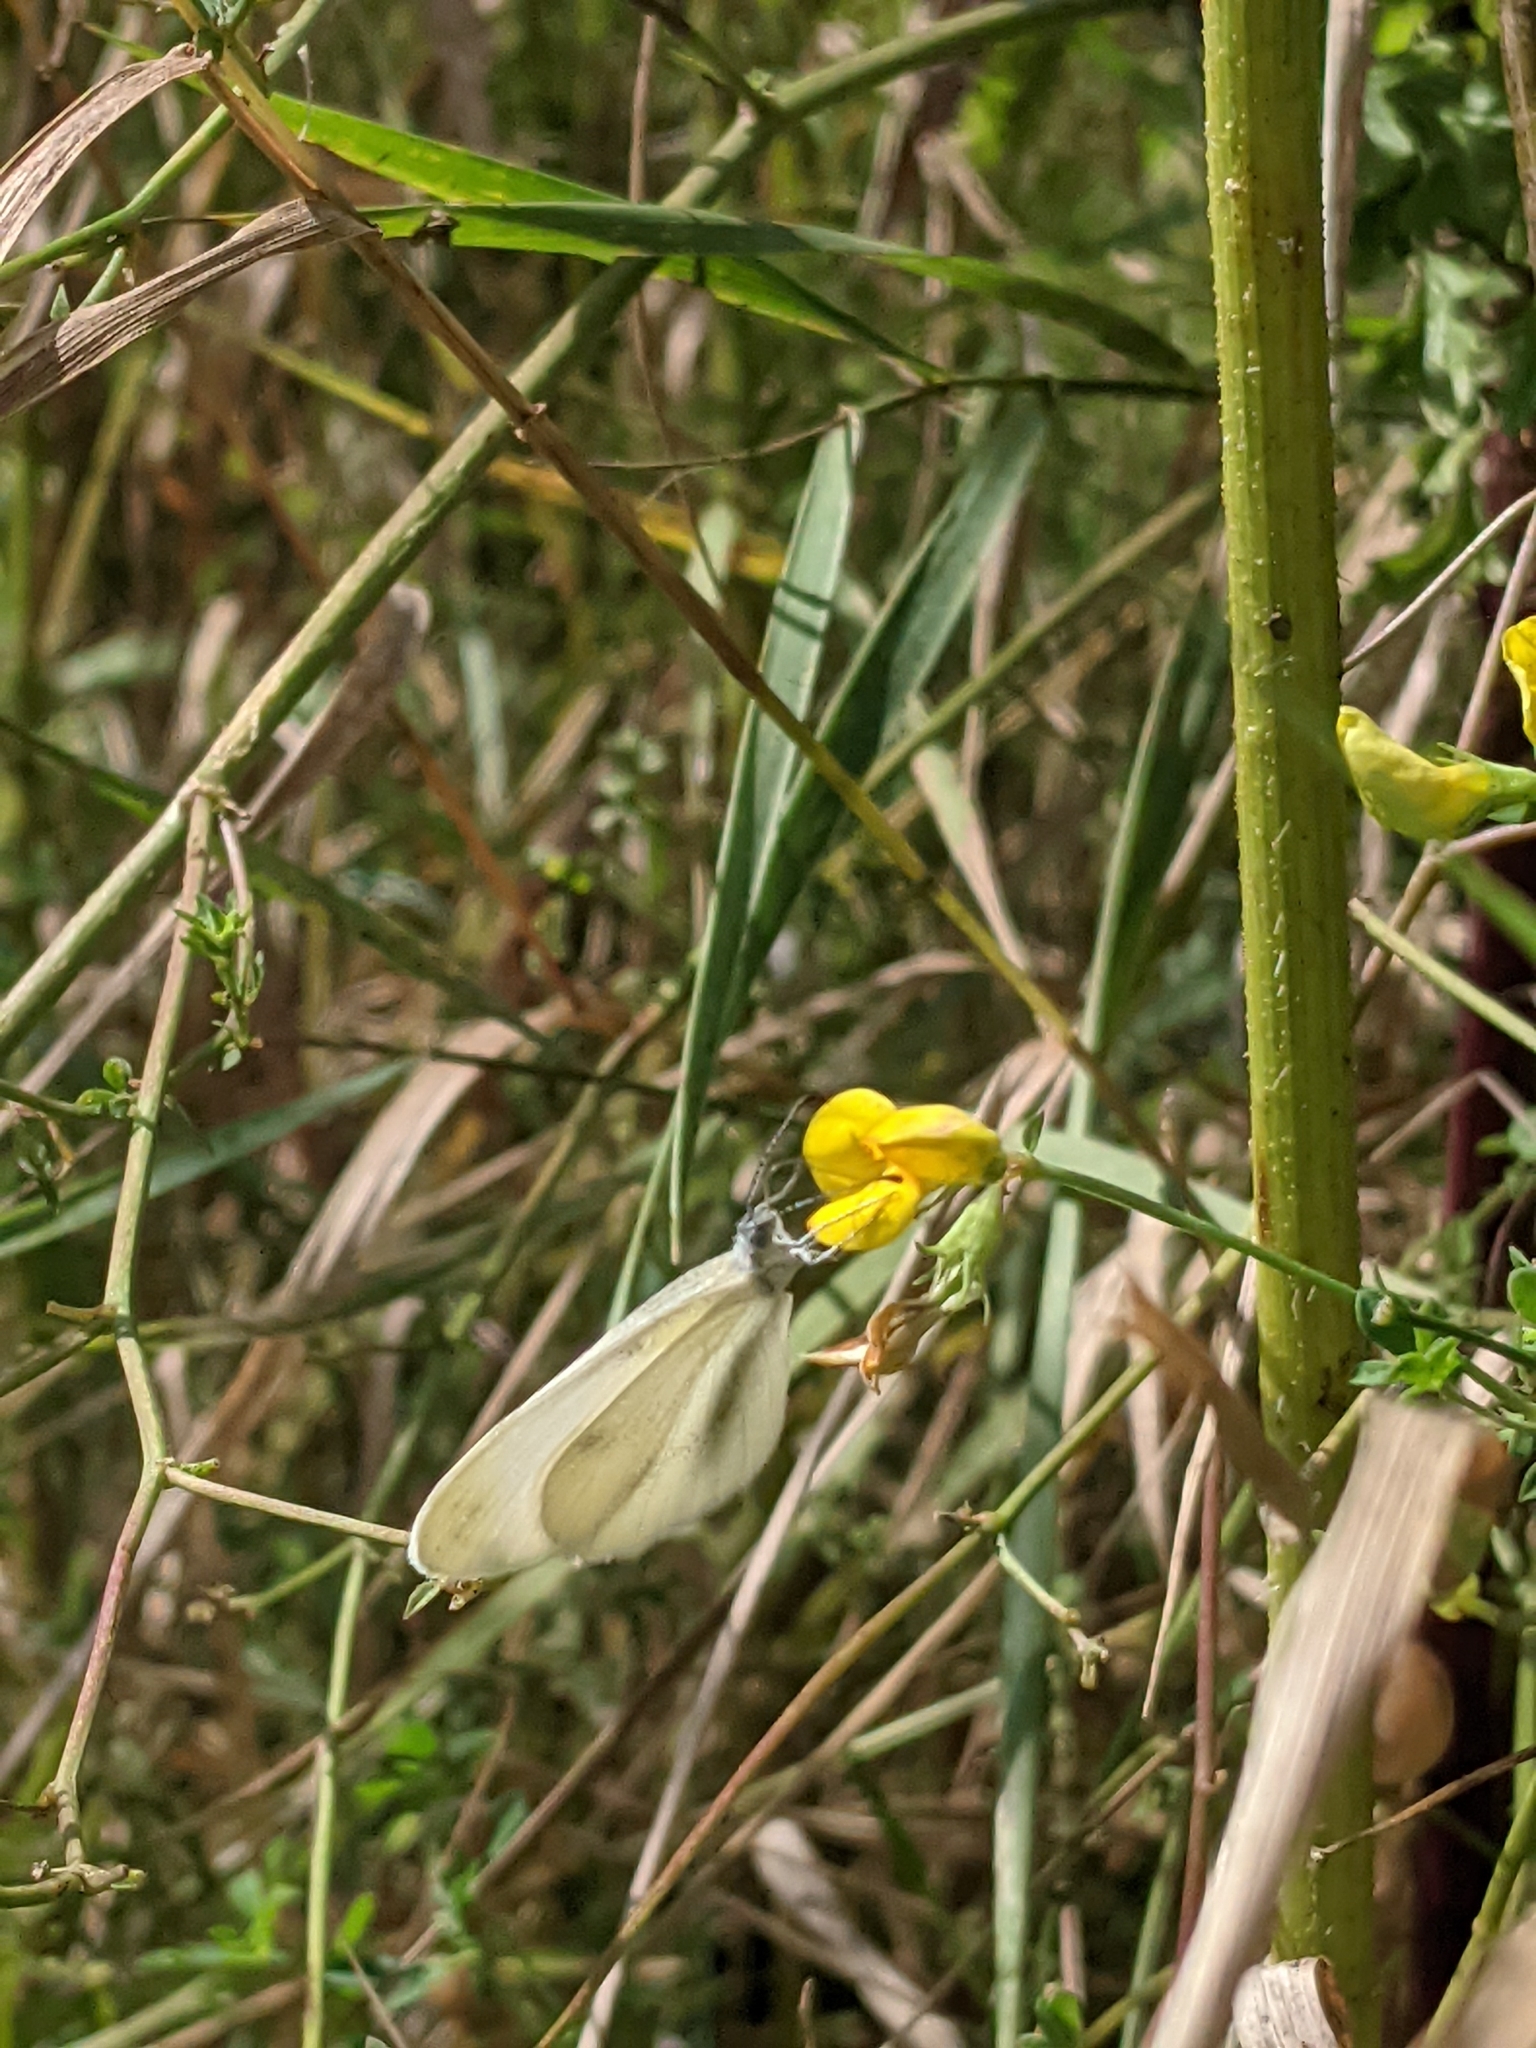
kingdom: Animalia
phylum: Arthropoda
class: Insecta
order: Lepidoptera
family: Pieridae
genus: Leptidea
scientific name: Leptidea
